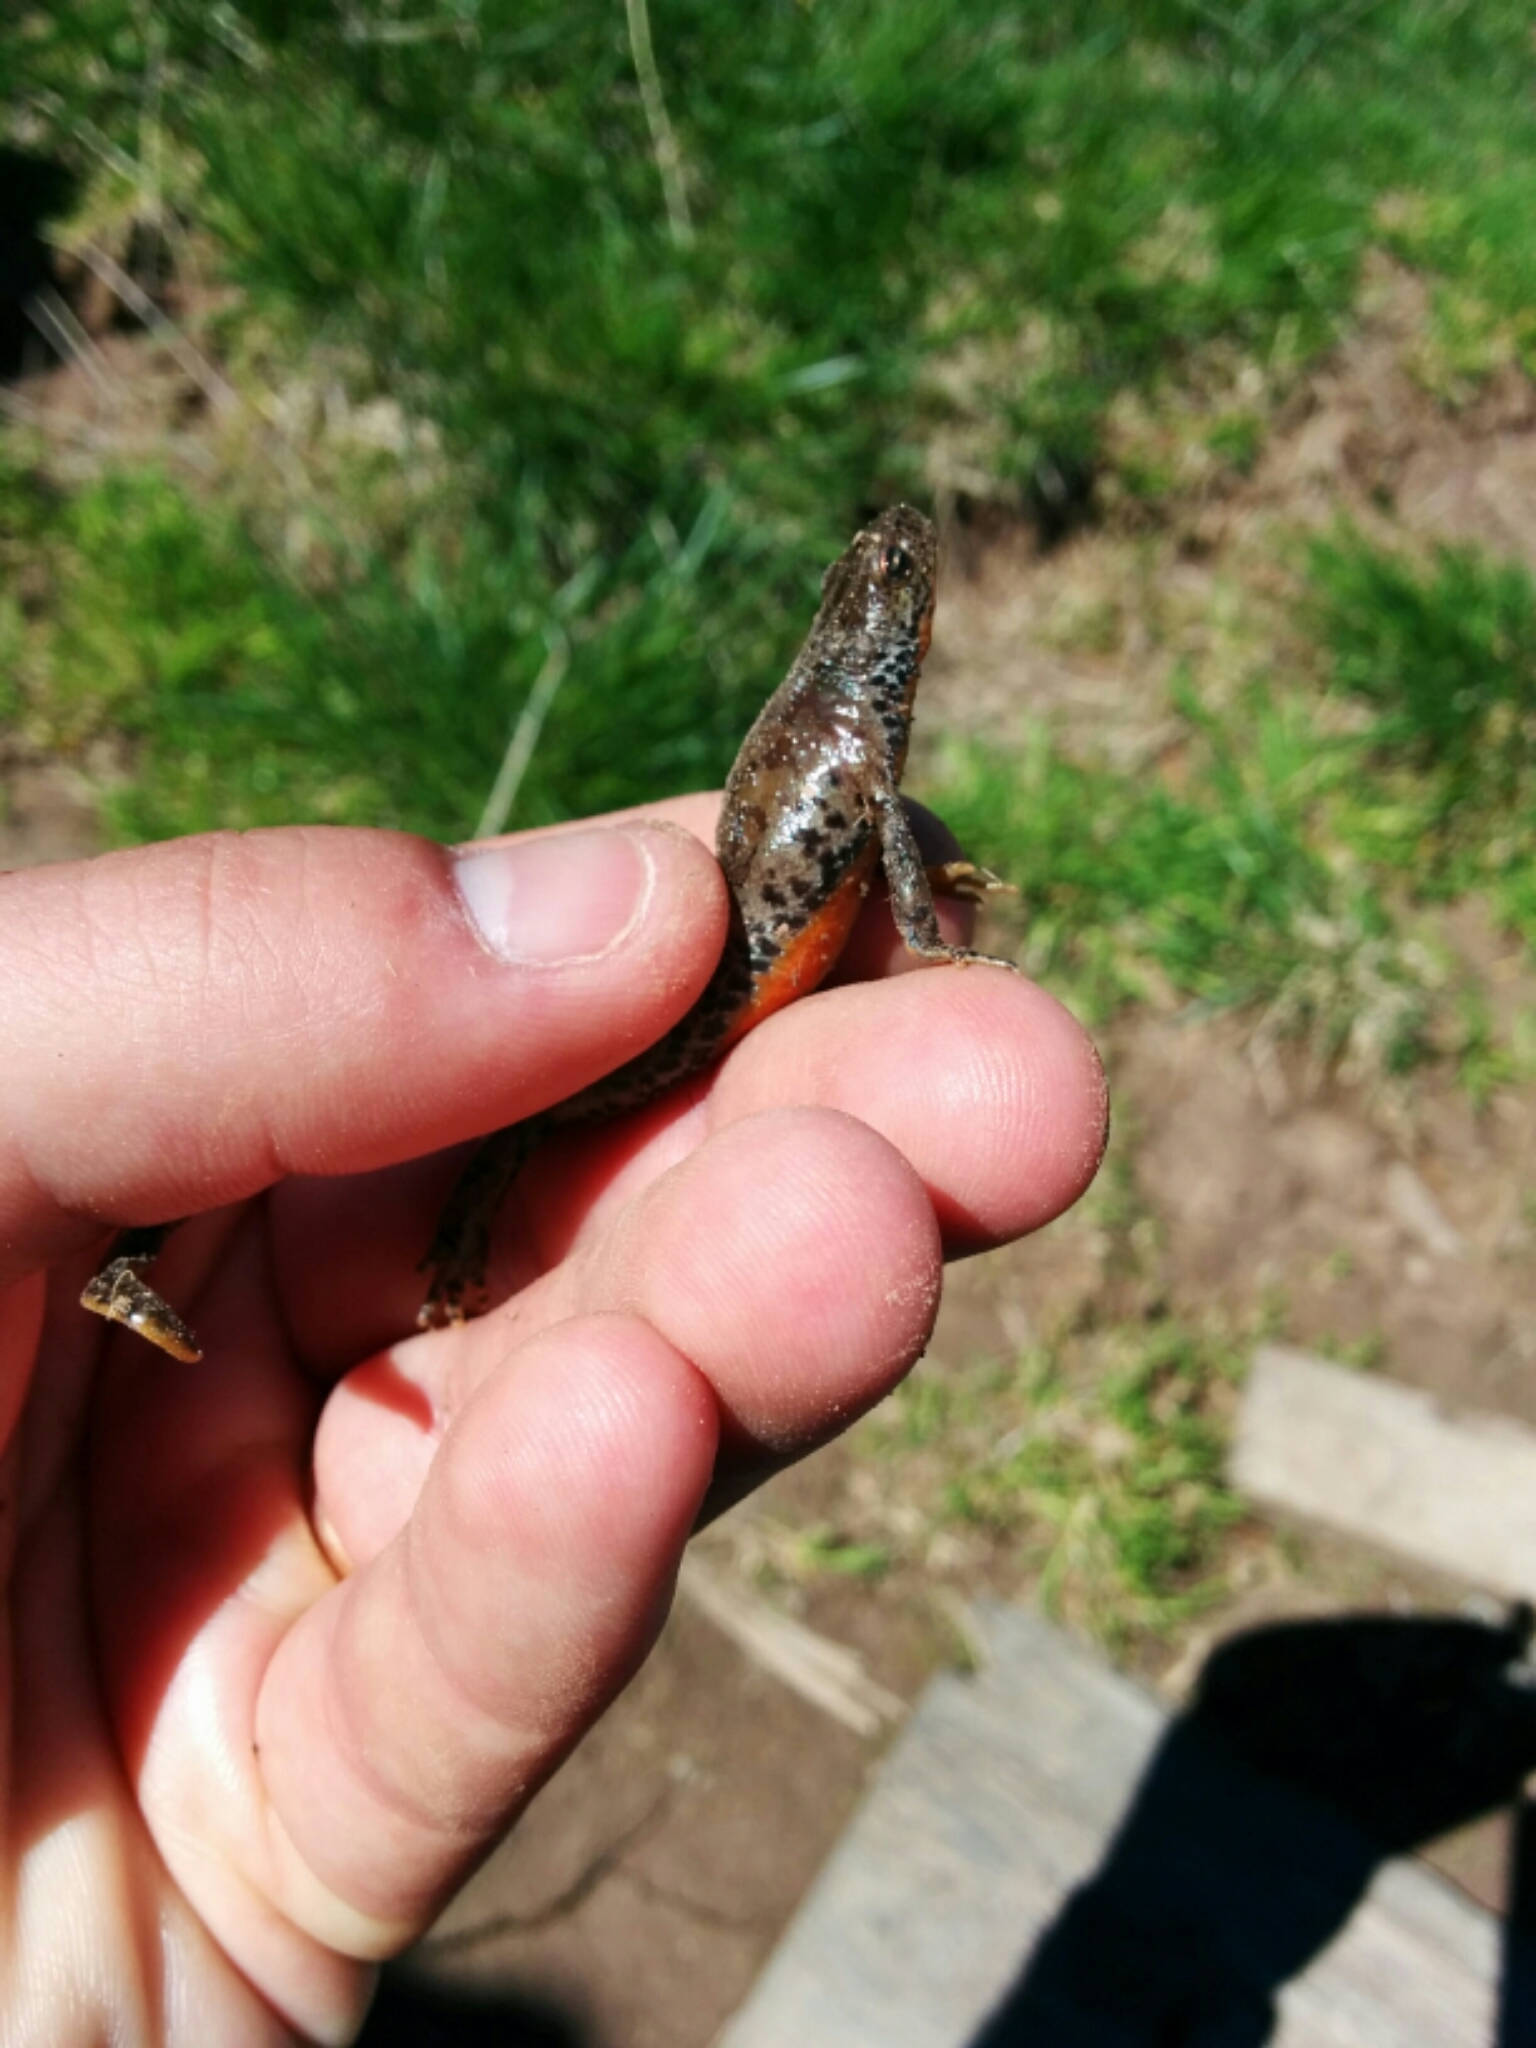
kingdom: Animalia
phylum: Chordata
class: Amphibia
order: Caudata
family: Salamandridae
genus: Ichthyosaura
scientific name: Ichthyosaura alpestris
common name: Alpine newt
